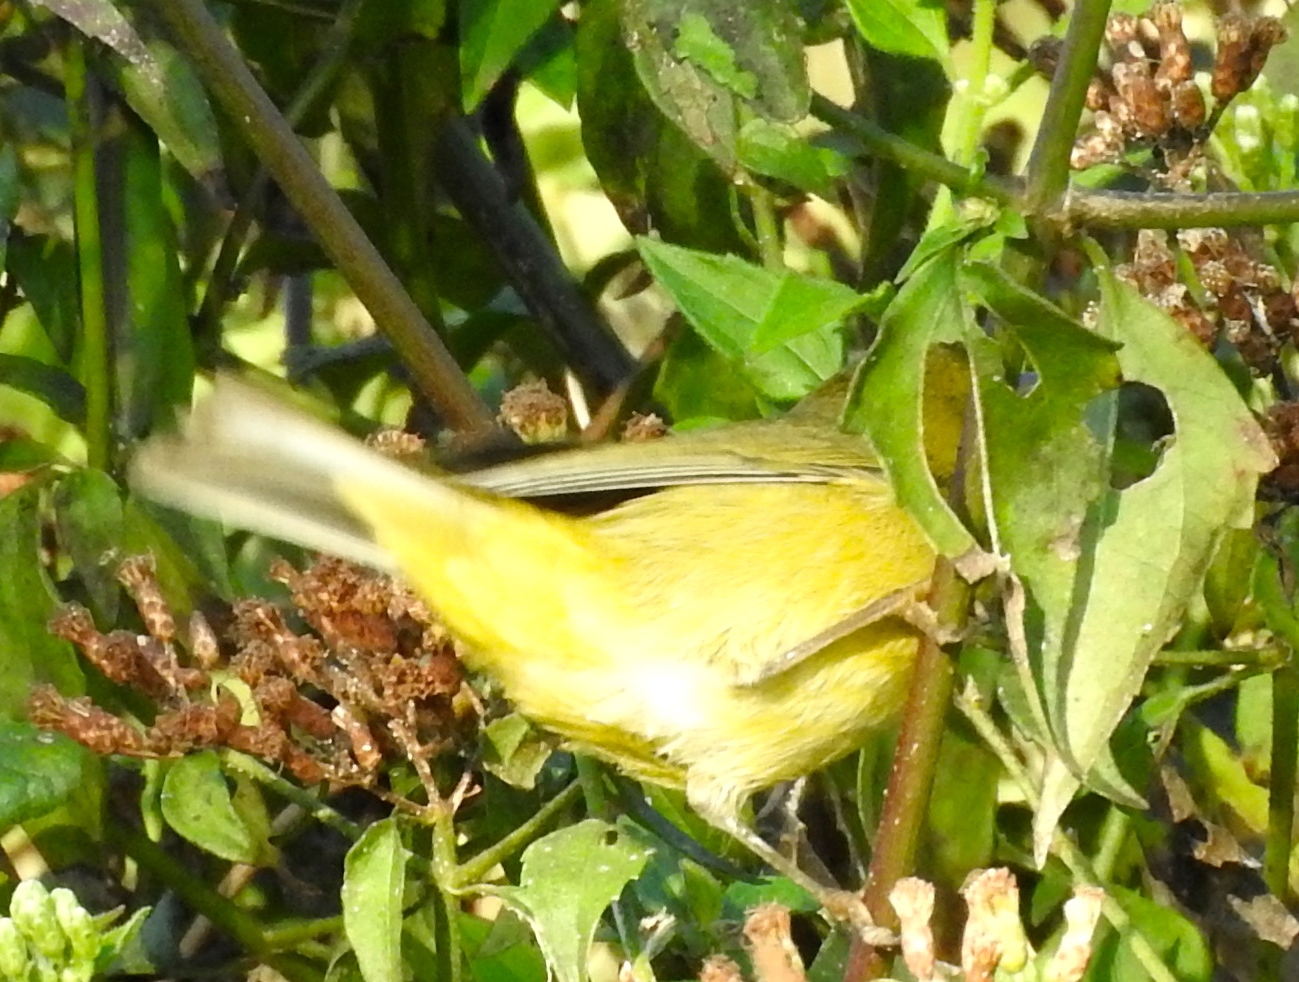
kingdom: Animalia
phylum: Chordata
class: Aves
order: Passeriformes
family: Parulidae
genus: Setophaga
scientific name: Setophaga petechia
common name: Yellow warbler
